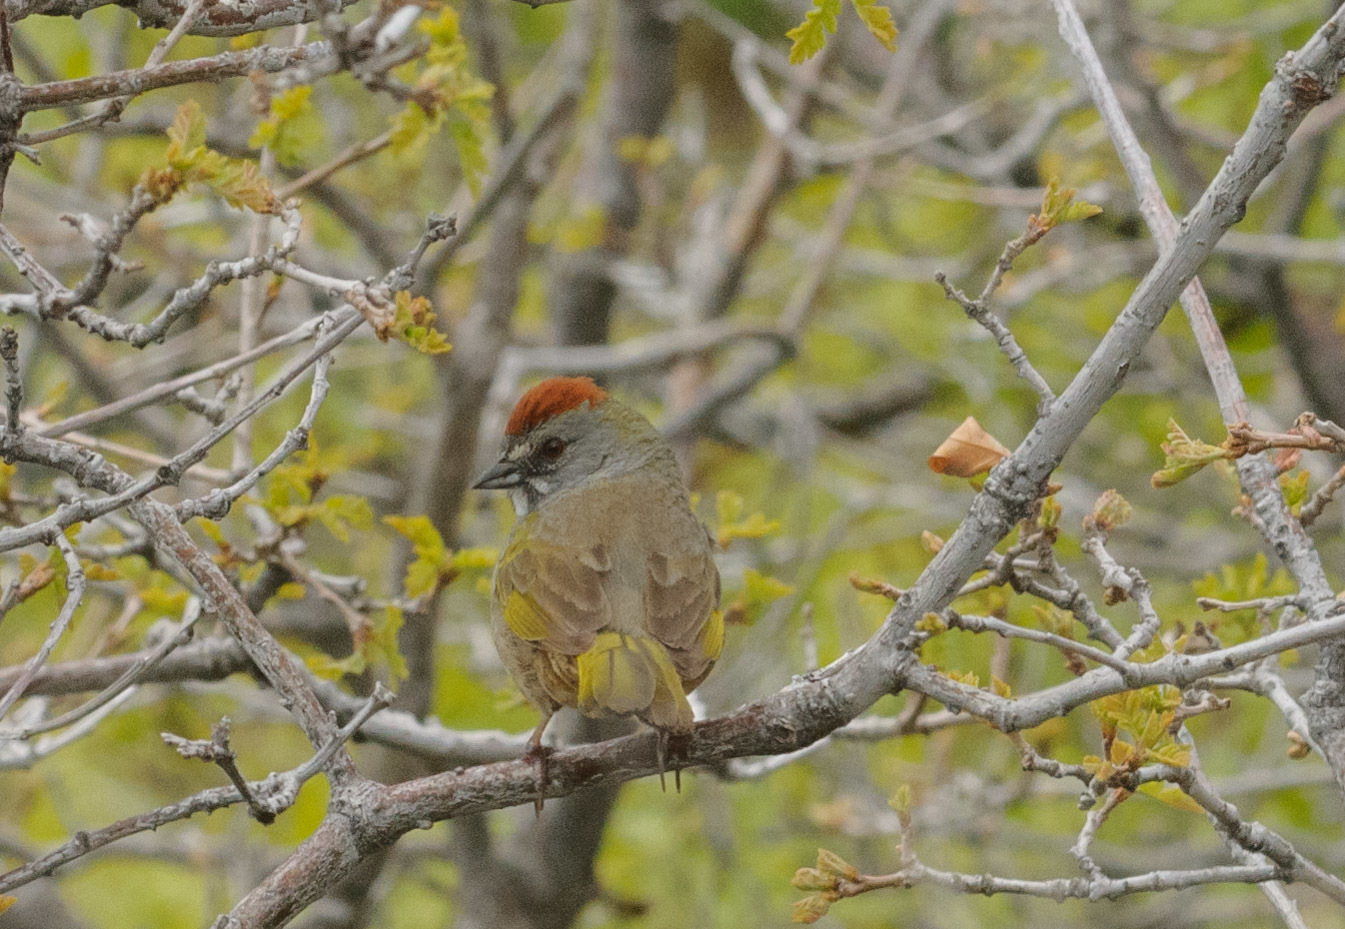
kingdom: Animalia
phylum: Chordata
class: Aves
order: Passeriformes
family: Passerellidae
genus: Pipilo
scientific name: Pipilo chlorurus
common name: Green-tailed towhee
